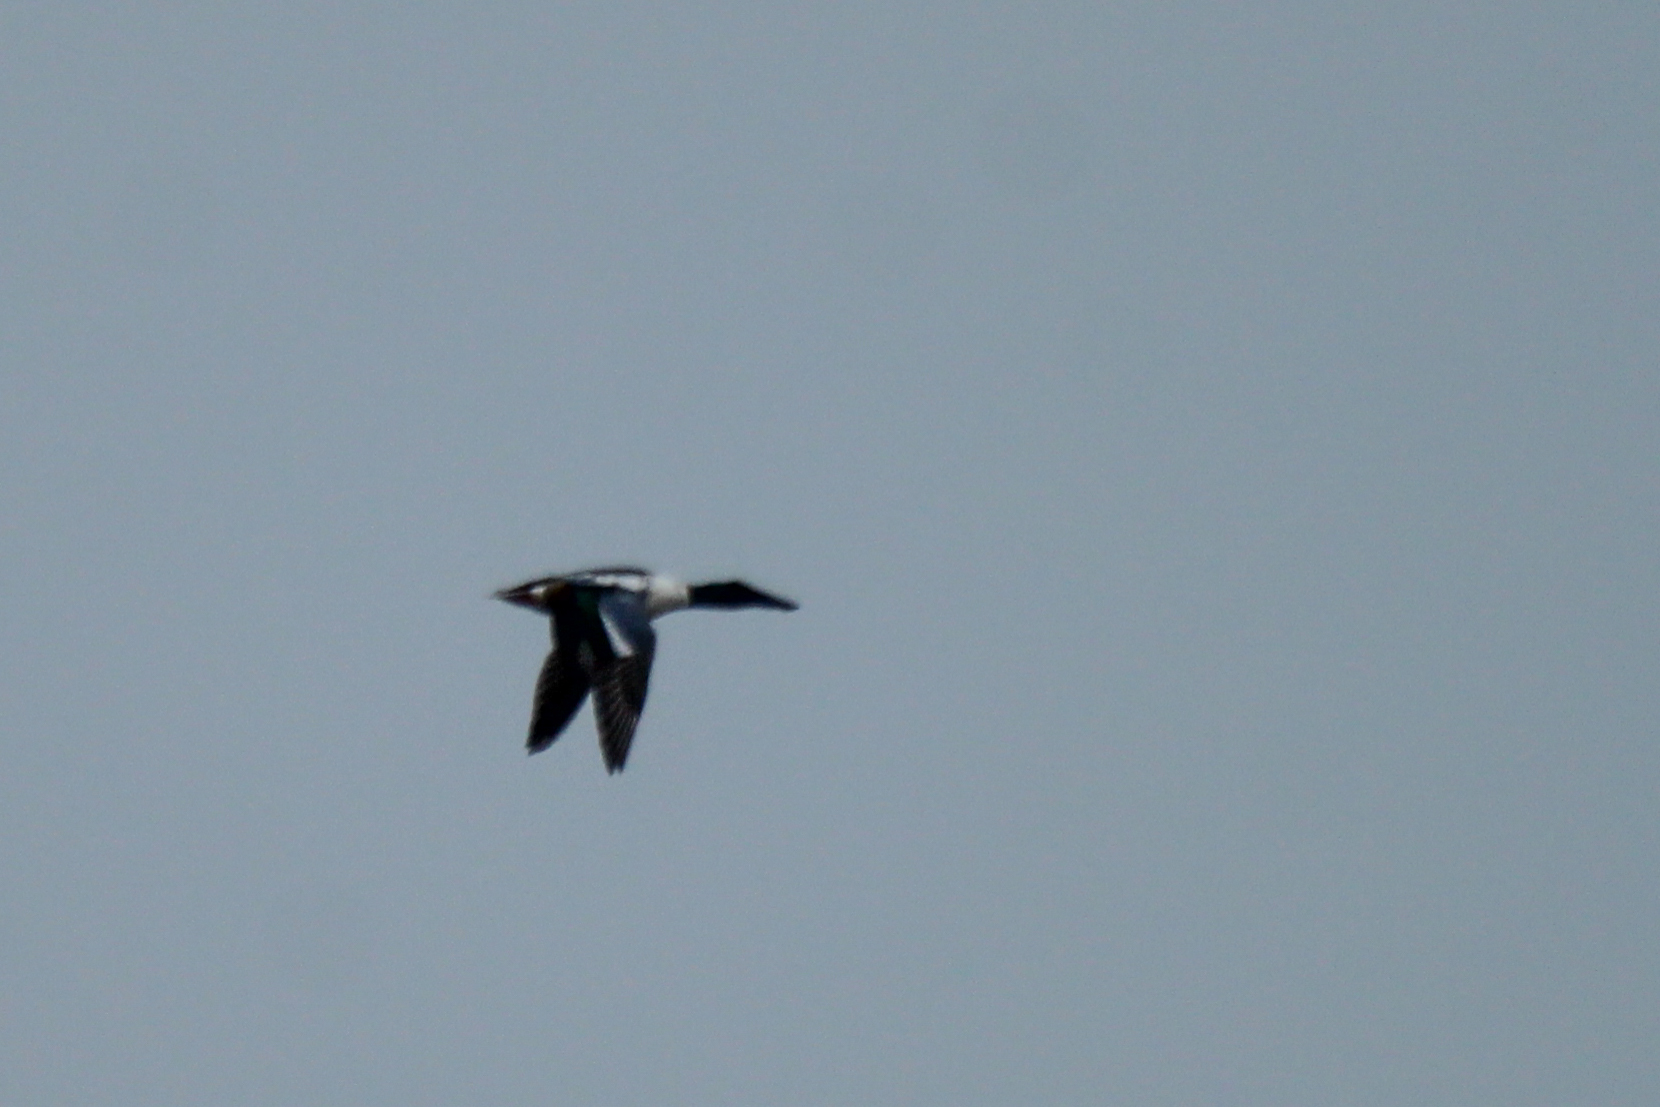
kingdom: Animalia
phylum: Chordata
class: Aves
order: Anseriformes
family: Anatidae
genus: Spatula
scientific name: Spatula clypeata
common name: Northern shoveler
